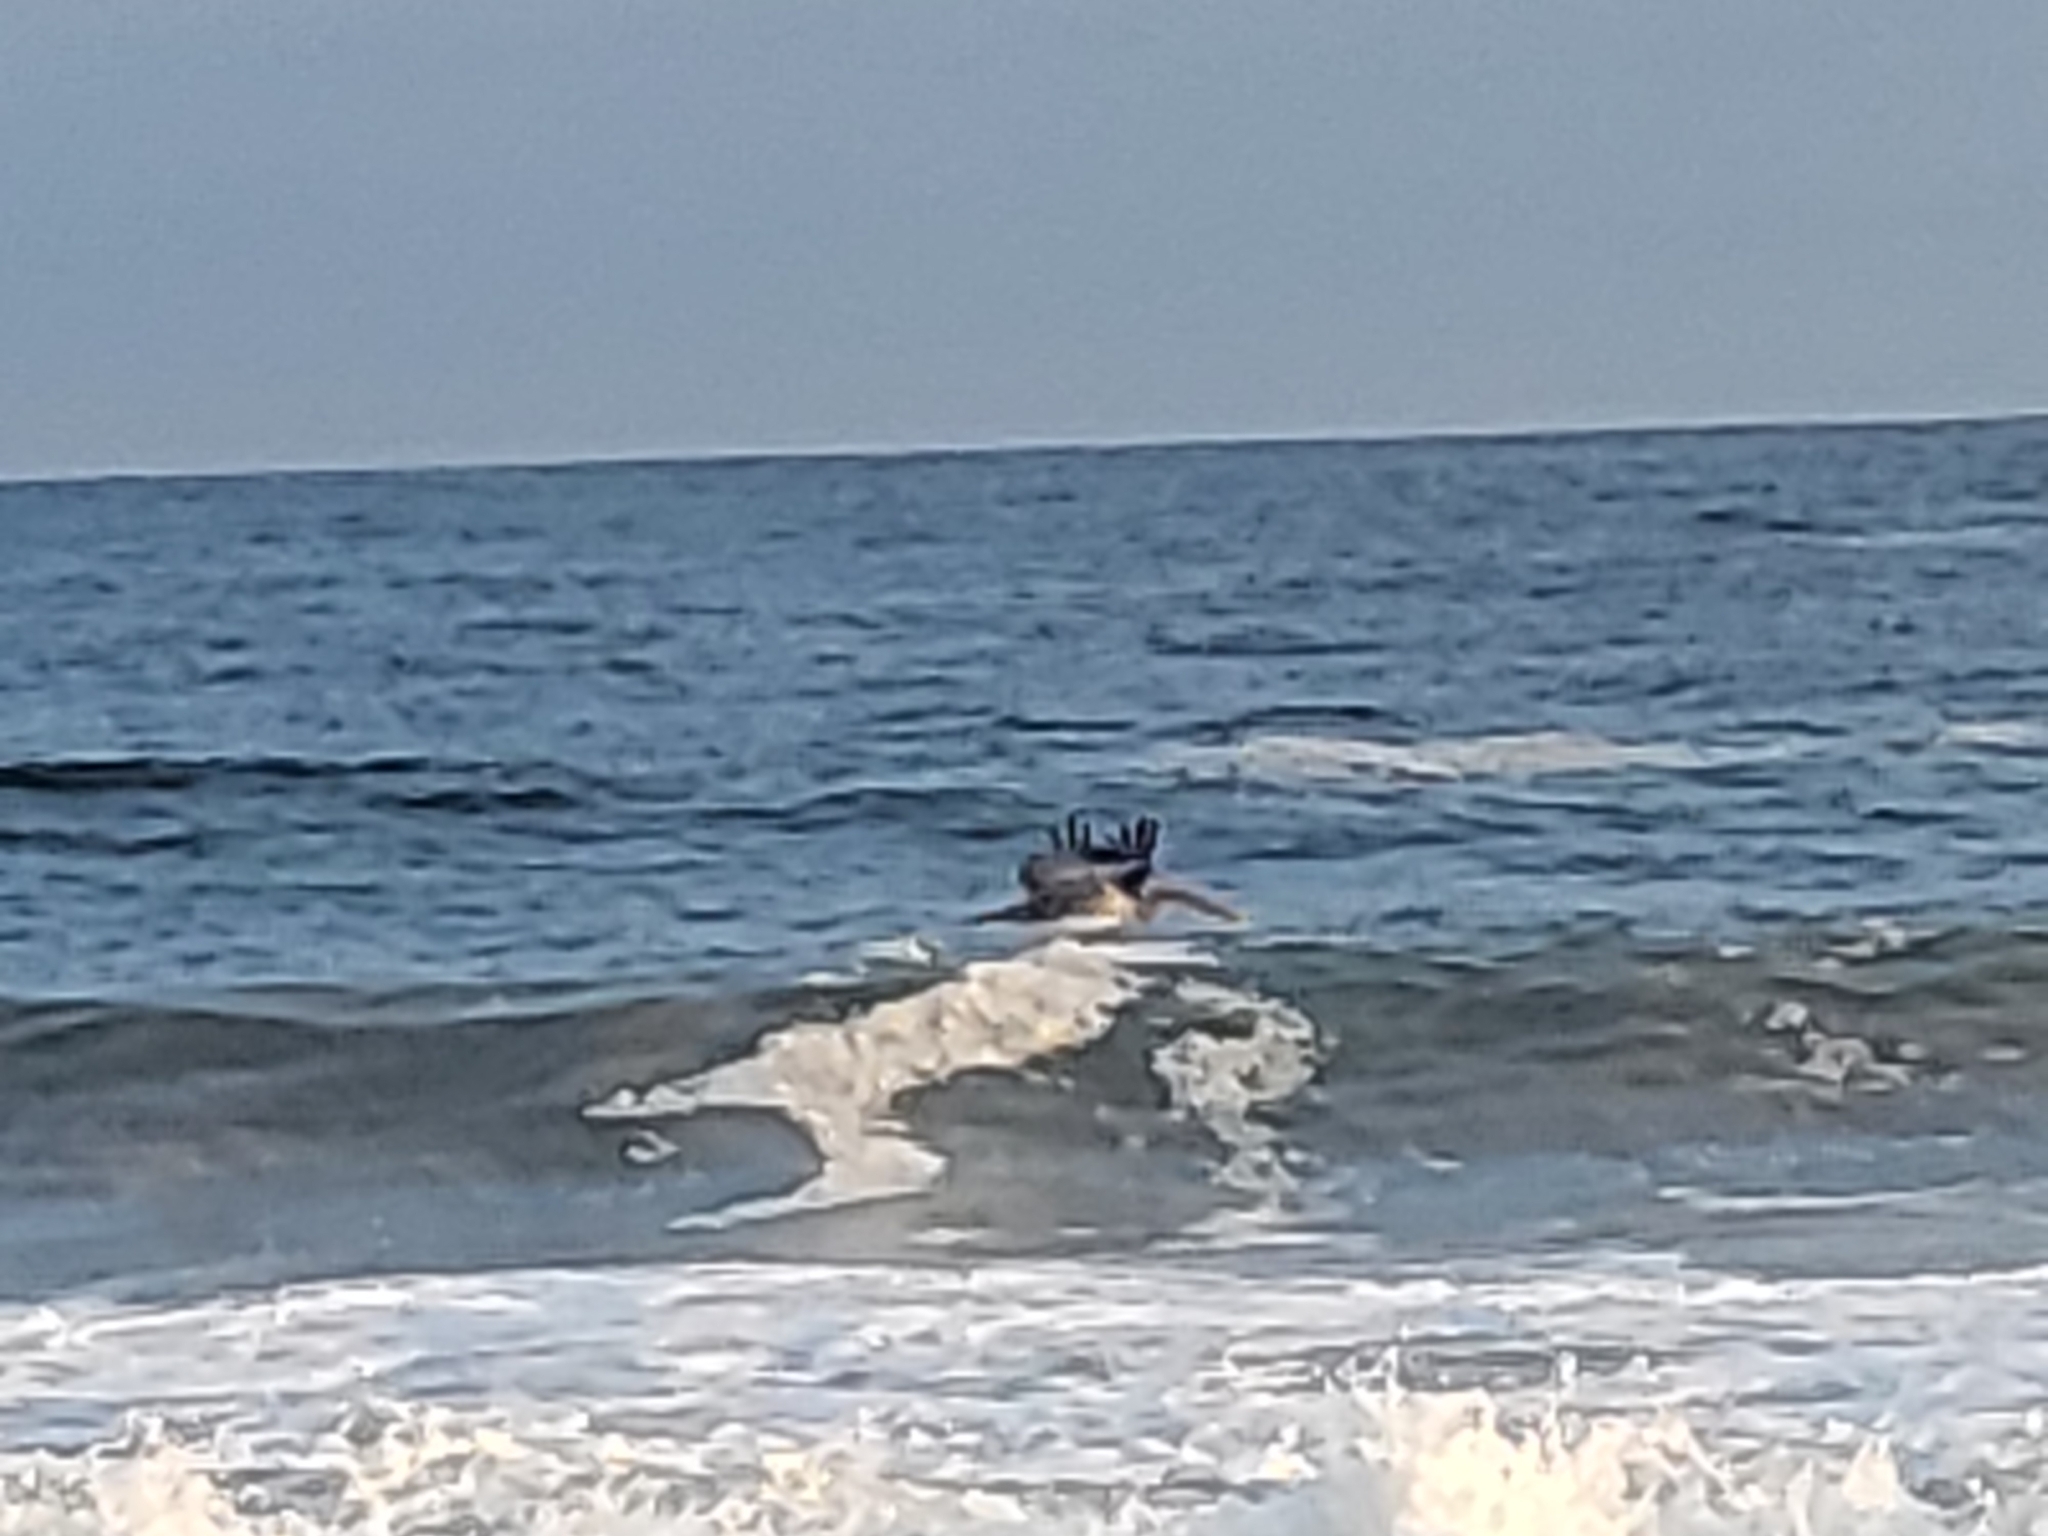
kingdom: Animalia
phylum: Chordata
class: Aves
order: Pelecaniformes
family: Pelecanidae
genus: Pelecanus
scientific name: Pelecanus occidentalis
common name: Brown pelican
